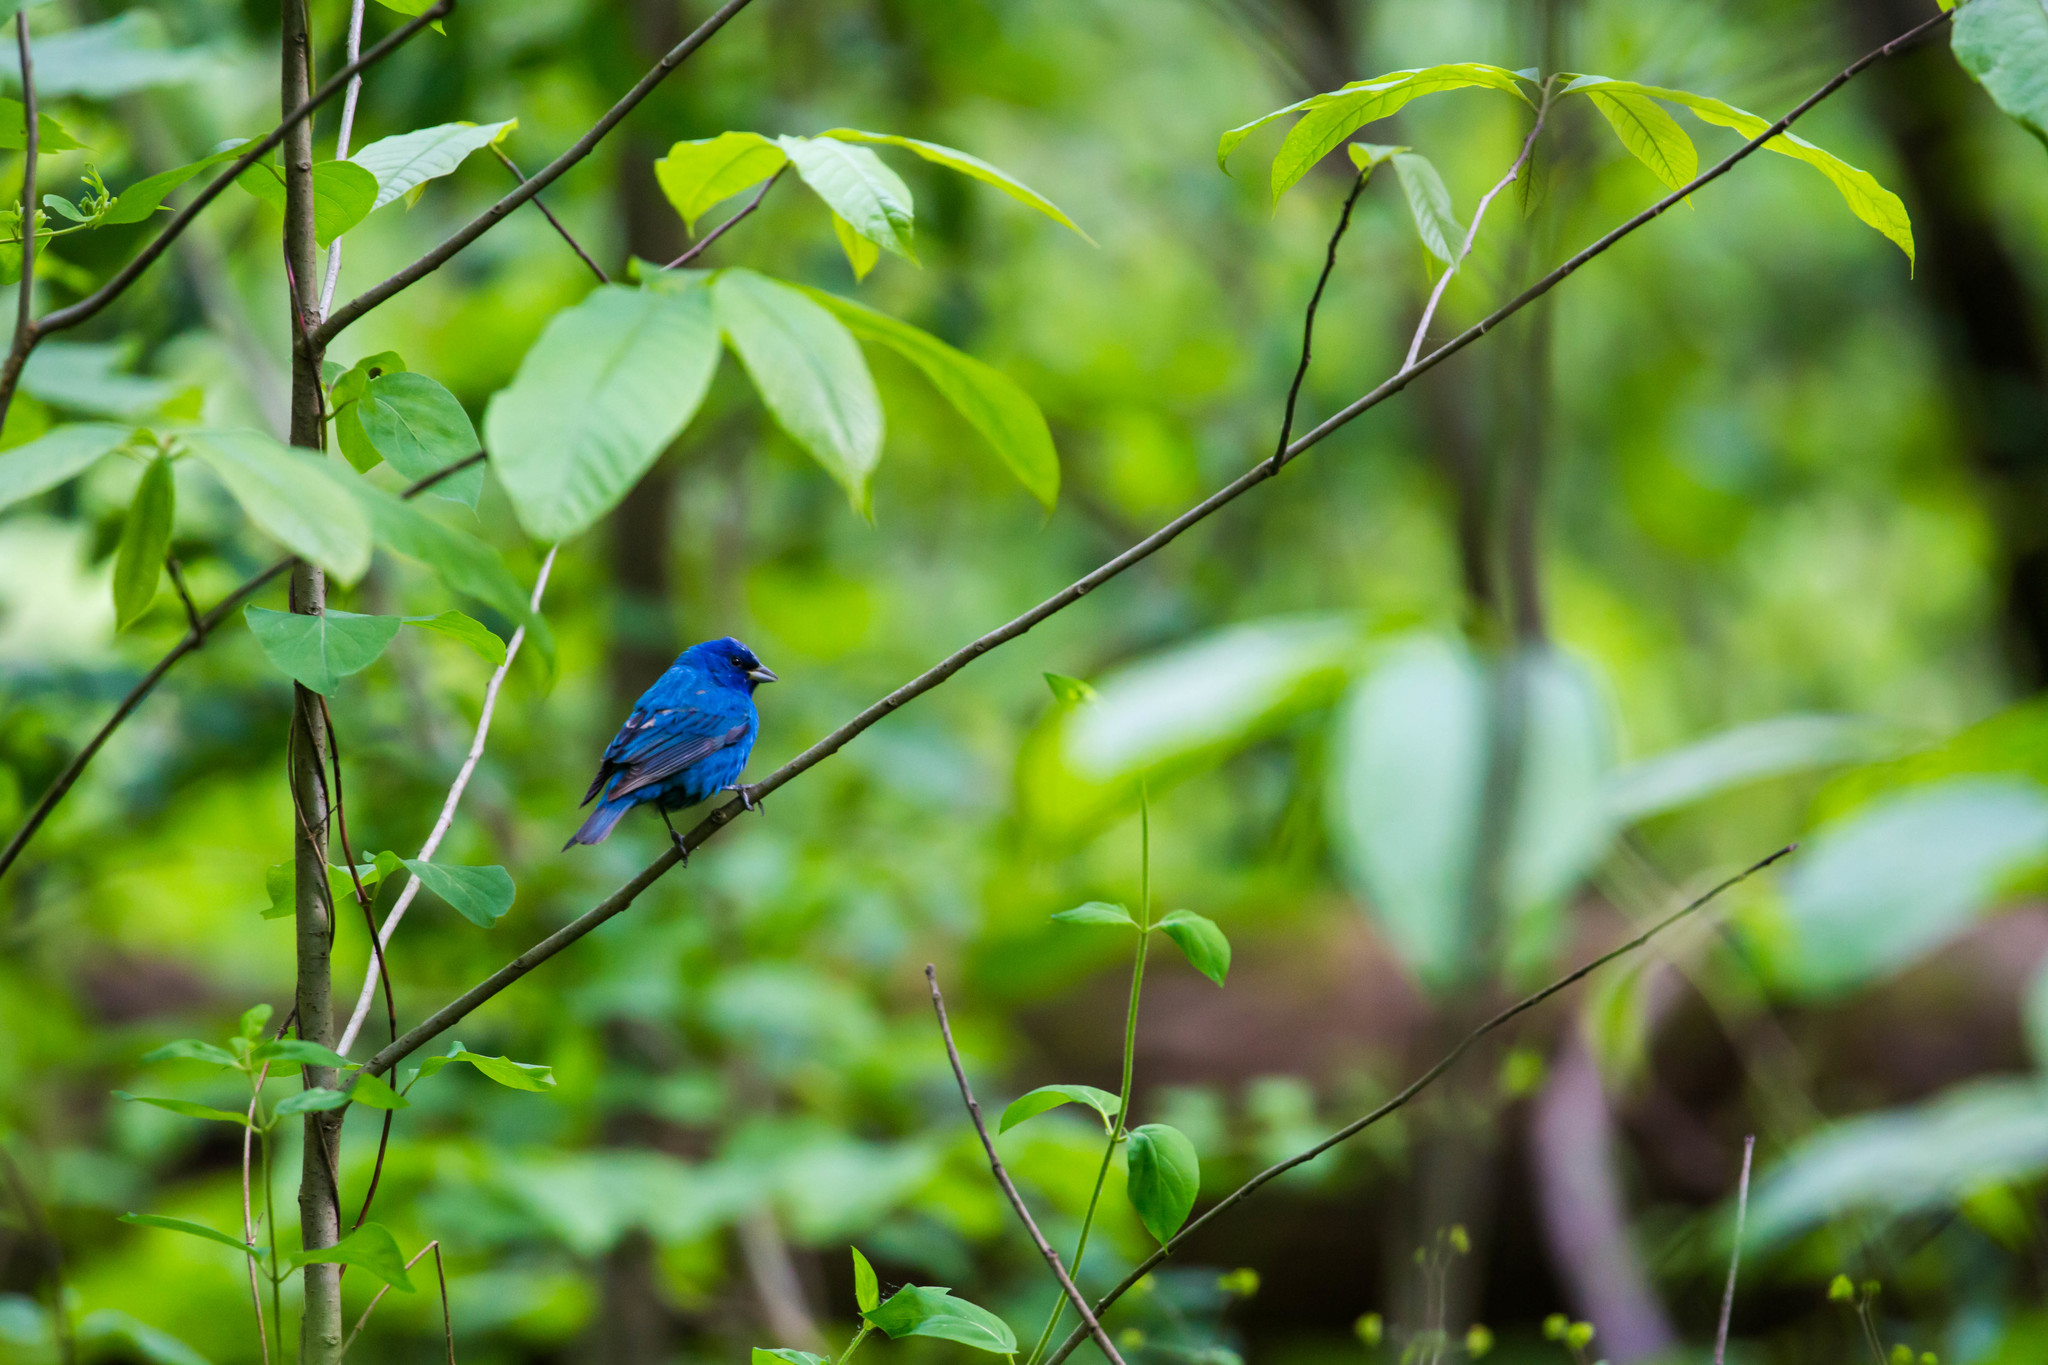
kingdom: Animalia
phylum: Chordata
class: Aves
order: Passeriformes
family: Cardinalidae
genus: Passerina
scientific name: Passerina cyanea
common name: Indigo bunting
